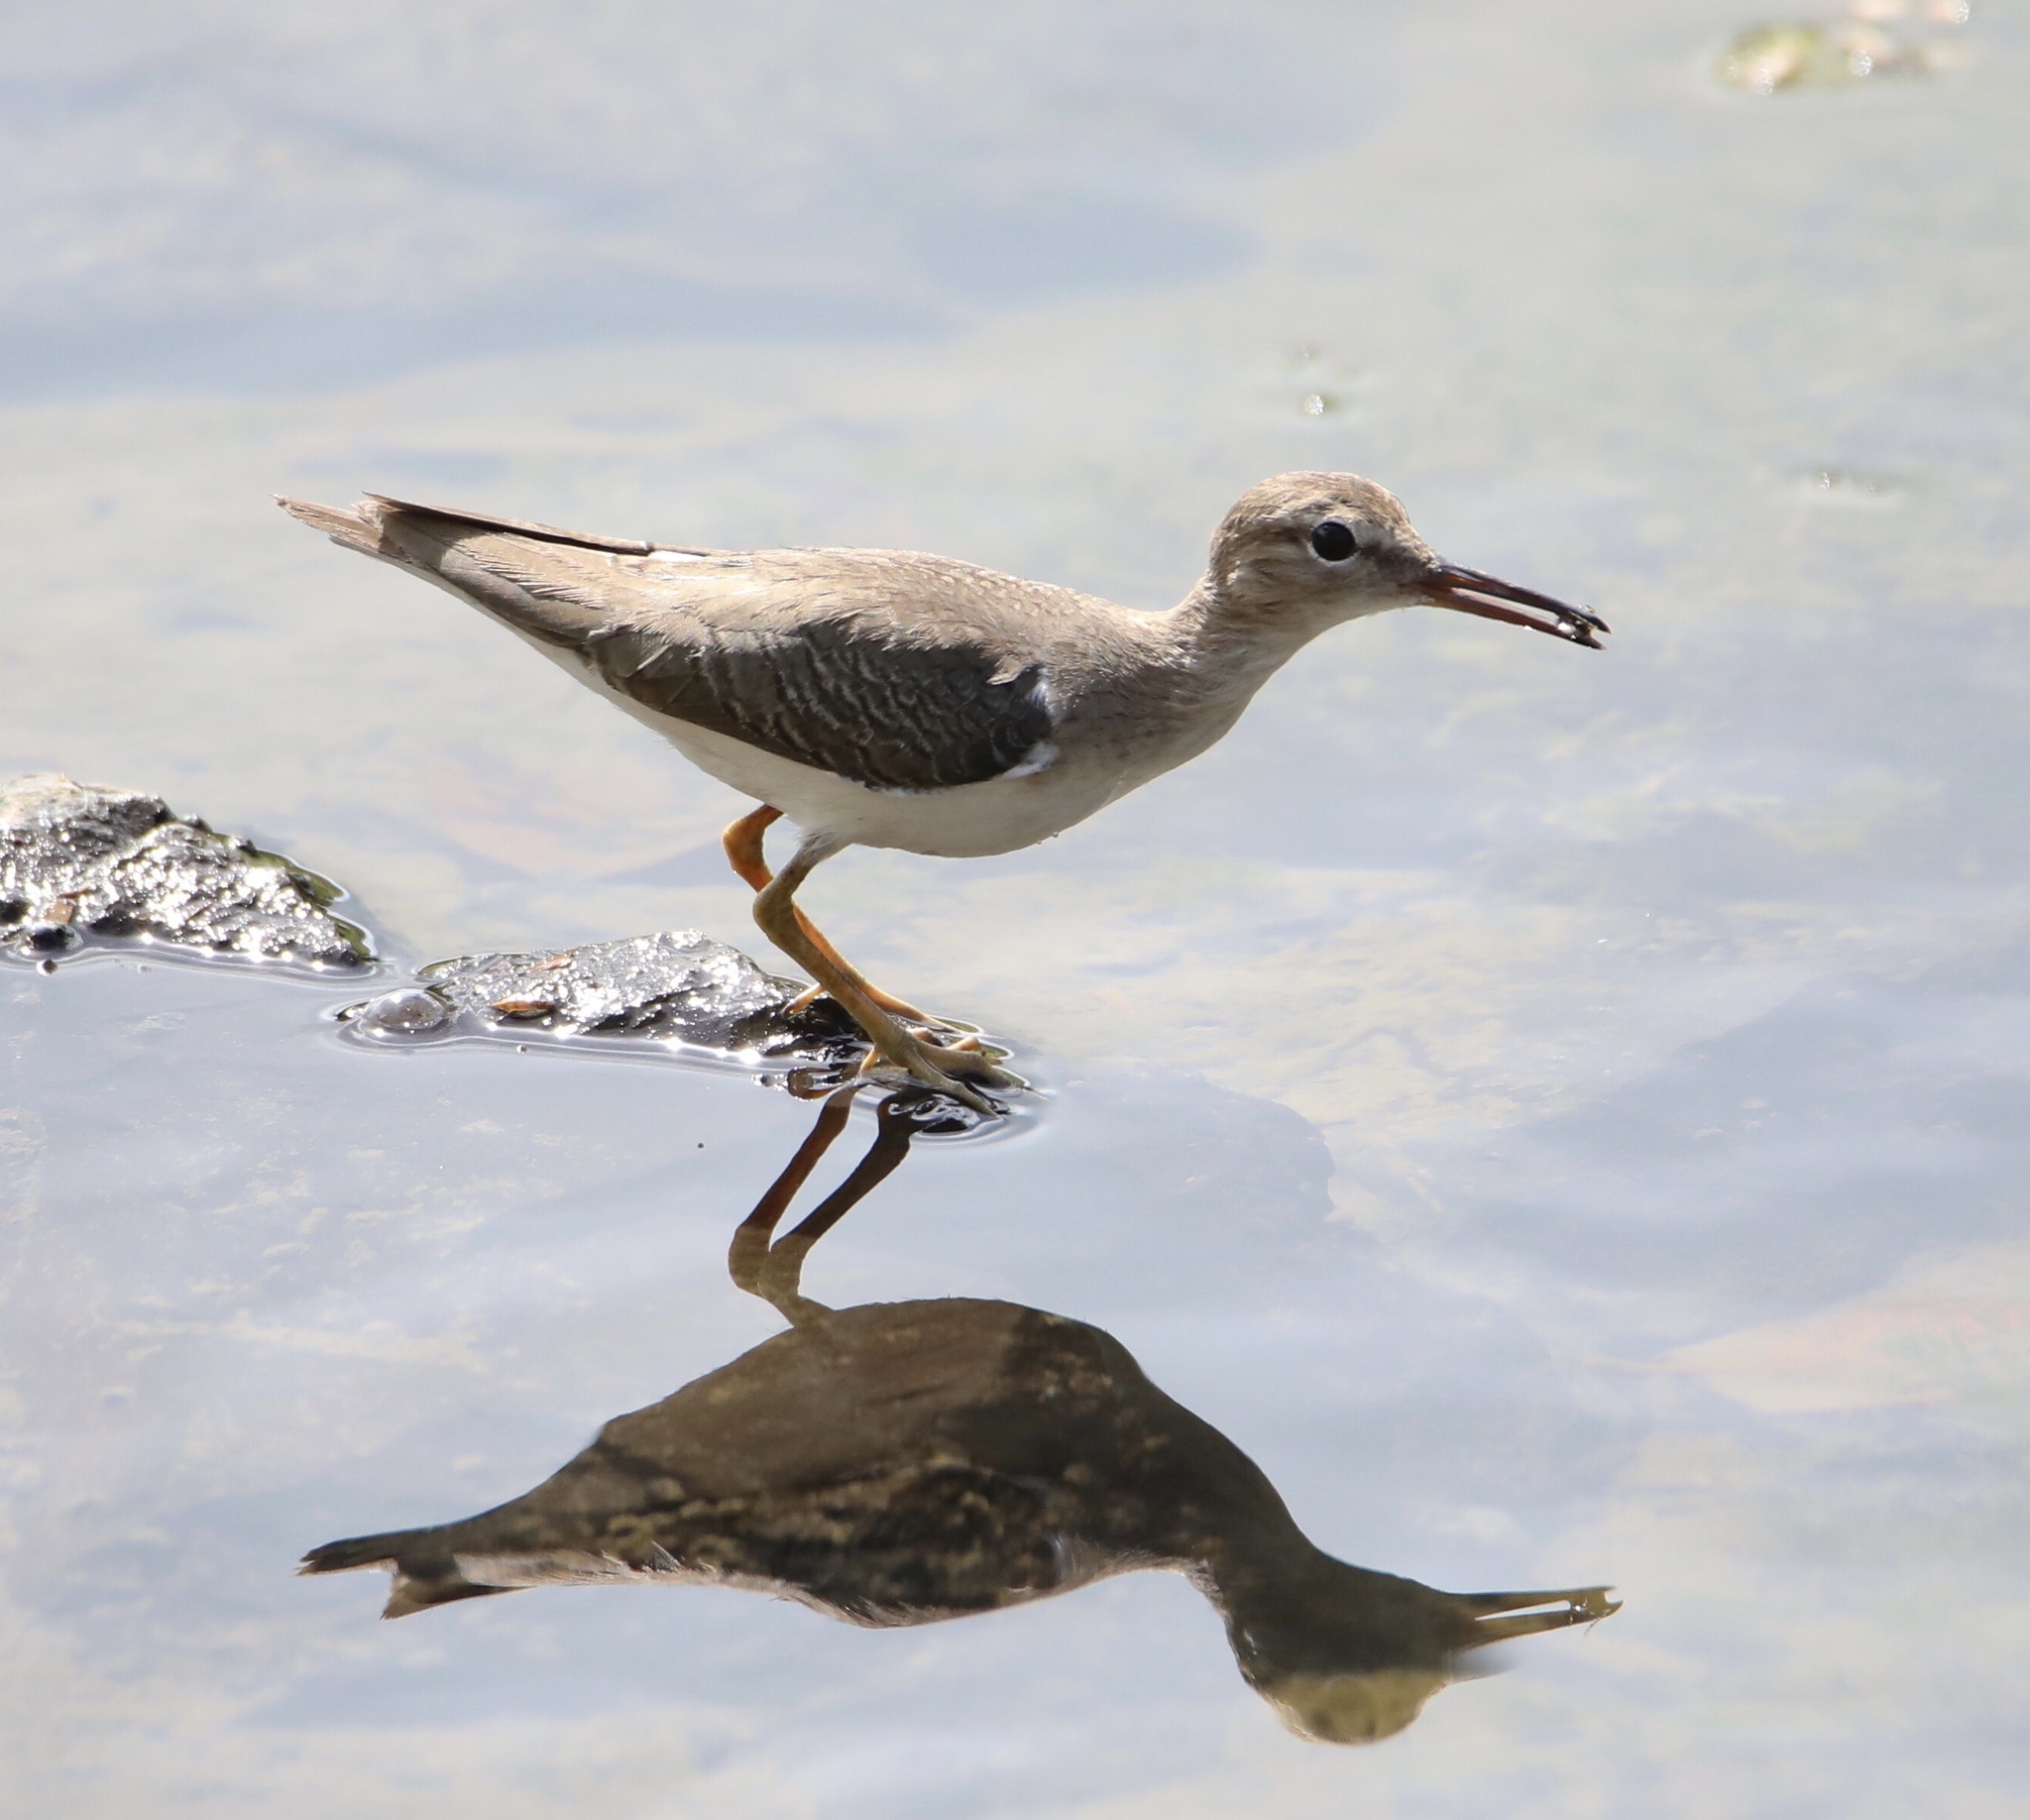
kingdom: Animalia
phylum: Chordata
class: Aves
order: Charadriiformes
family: Scolopacidae
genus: Actitis
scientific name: Actitis macularius
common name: Spotted sandpiper
